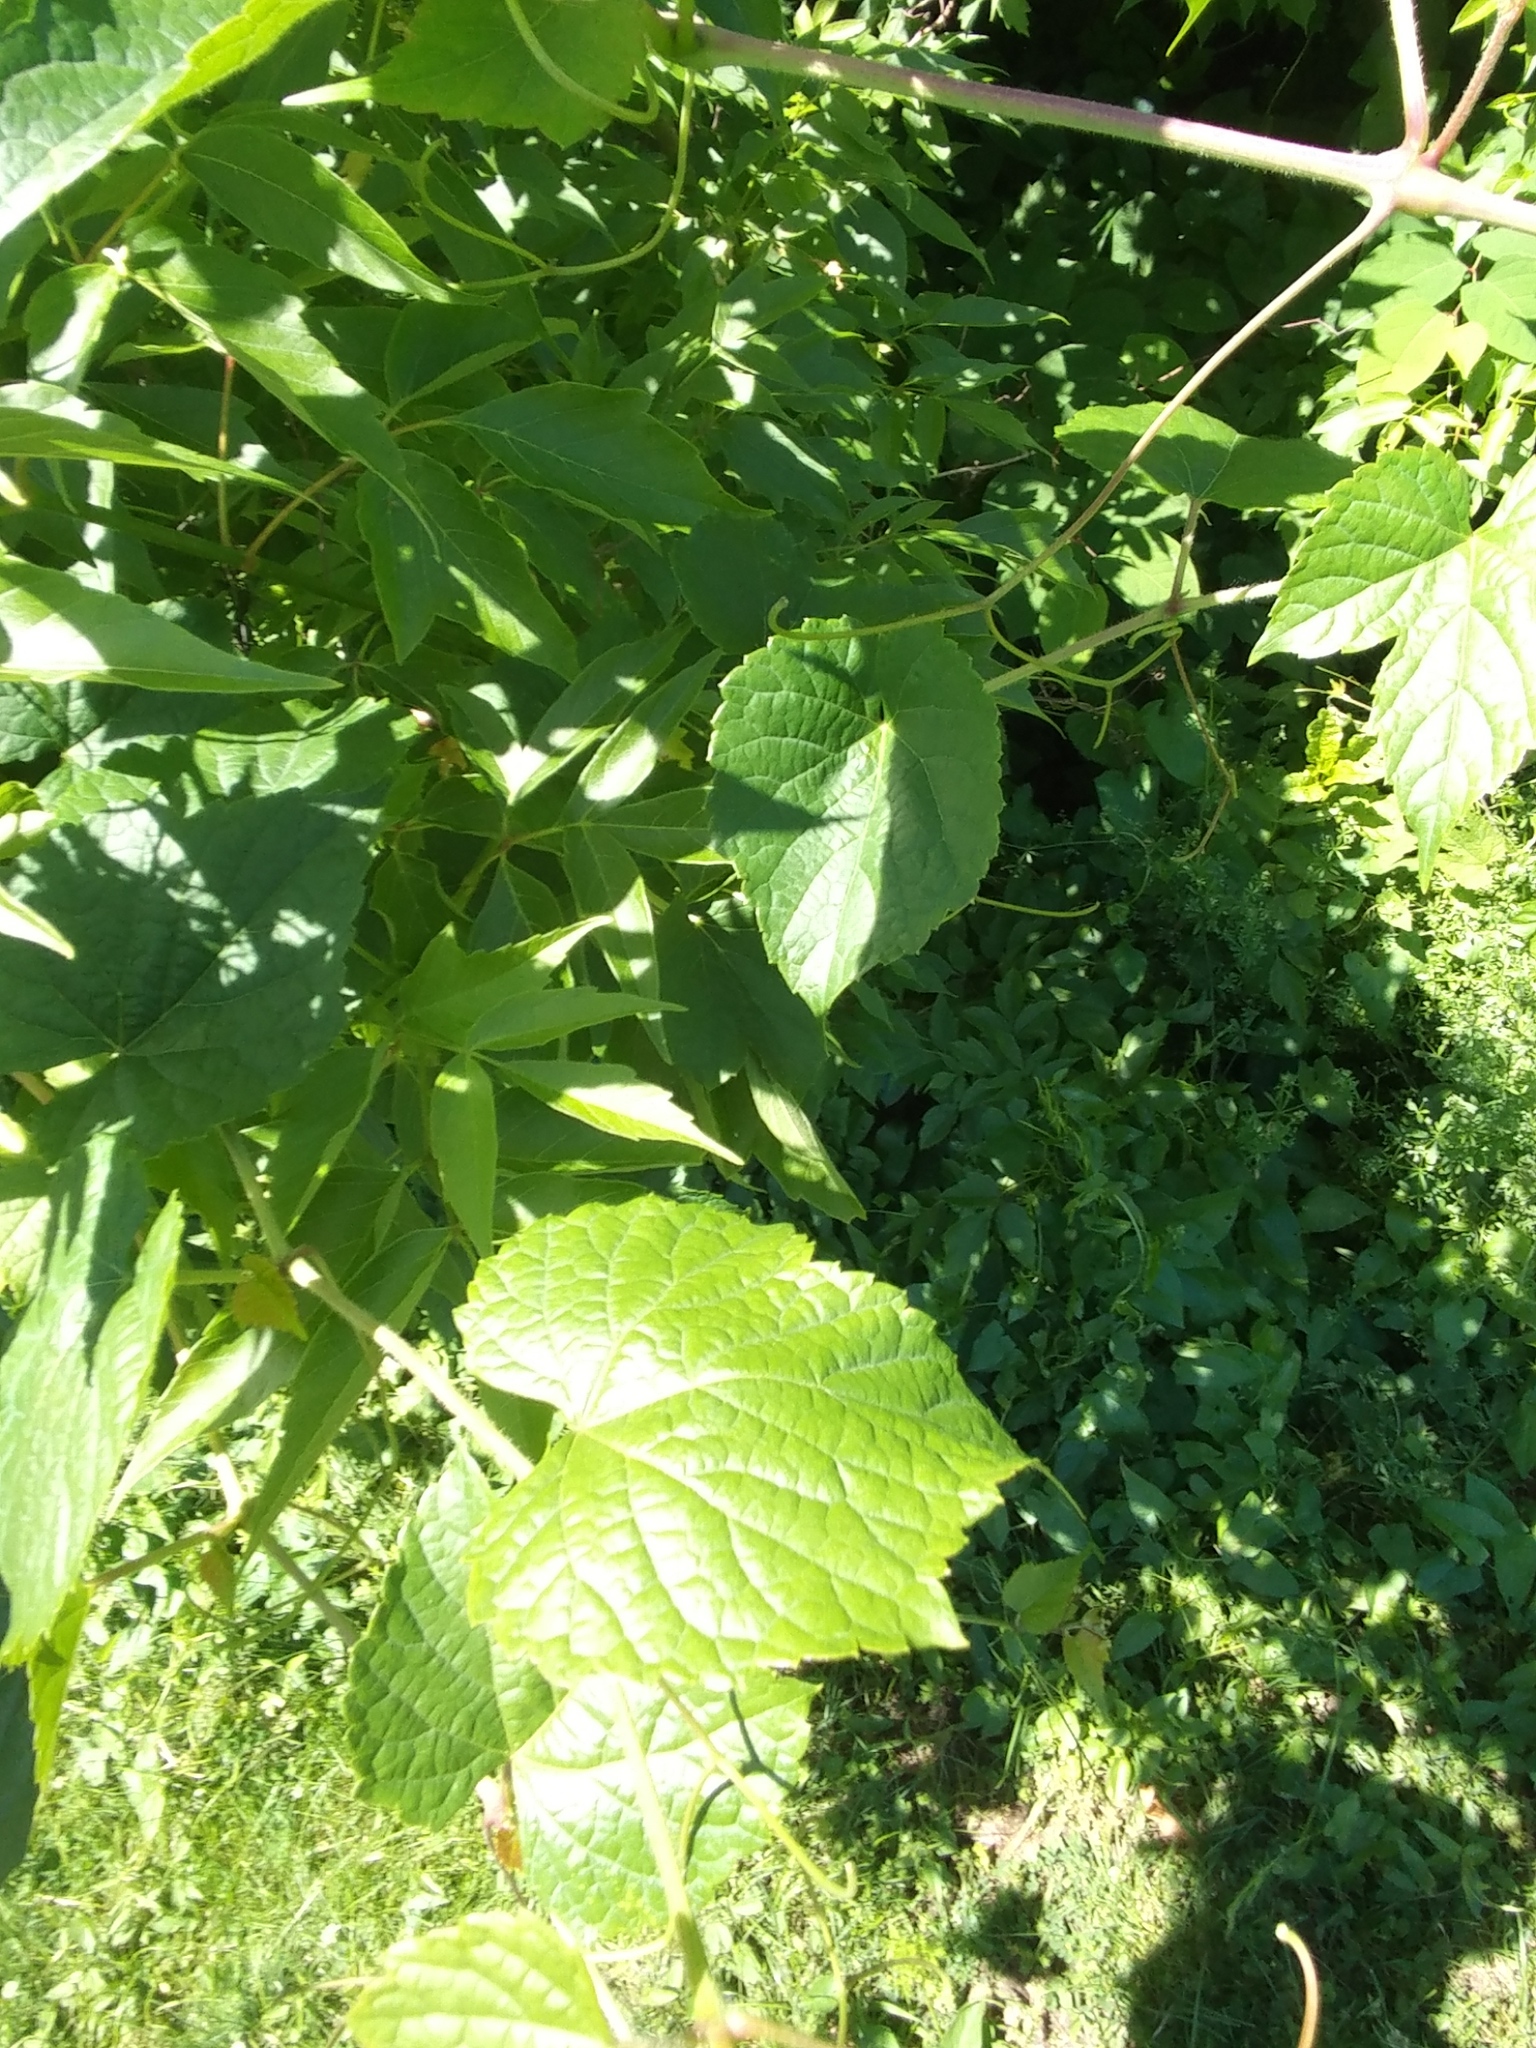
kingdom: Plantae
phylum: Tracheophyta
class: Magnoliopsida
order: Vitales
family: Vitaceae
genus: Ampelopsis
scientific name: Ampelopsis glandulosa
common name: Amur peppervine
